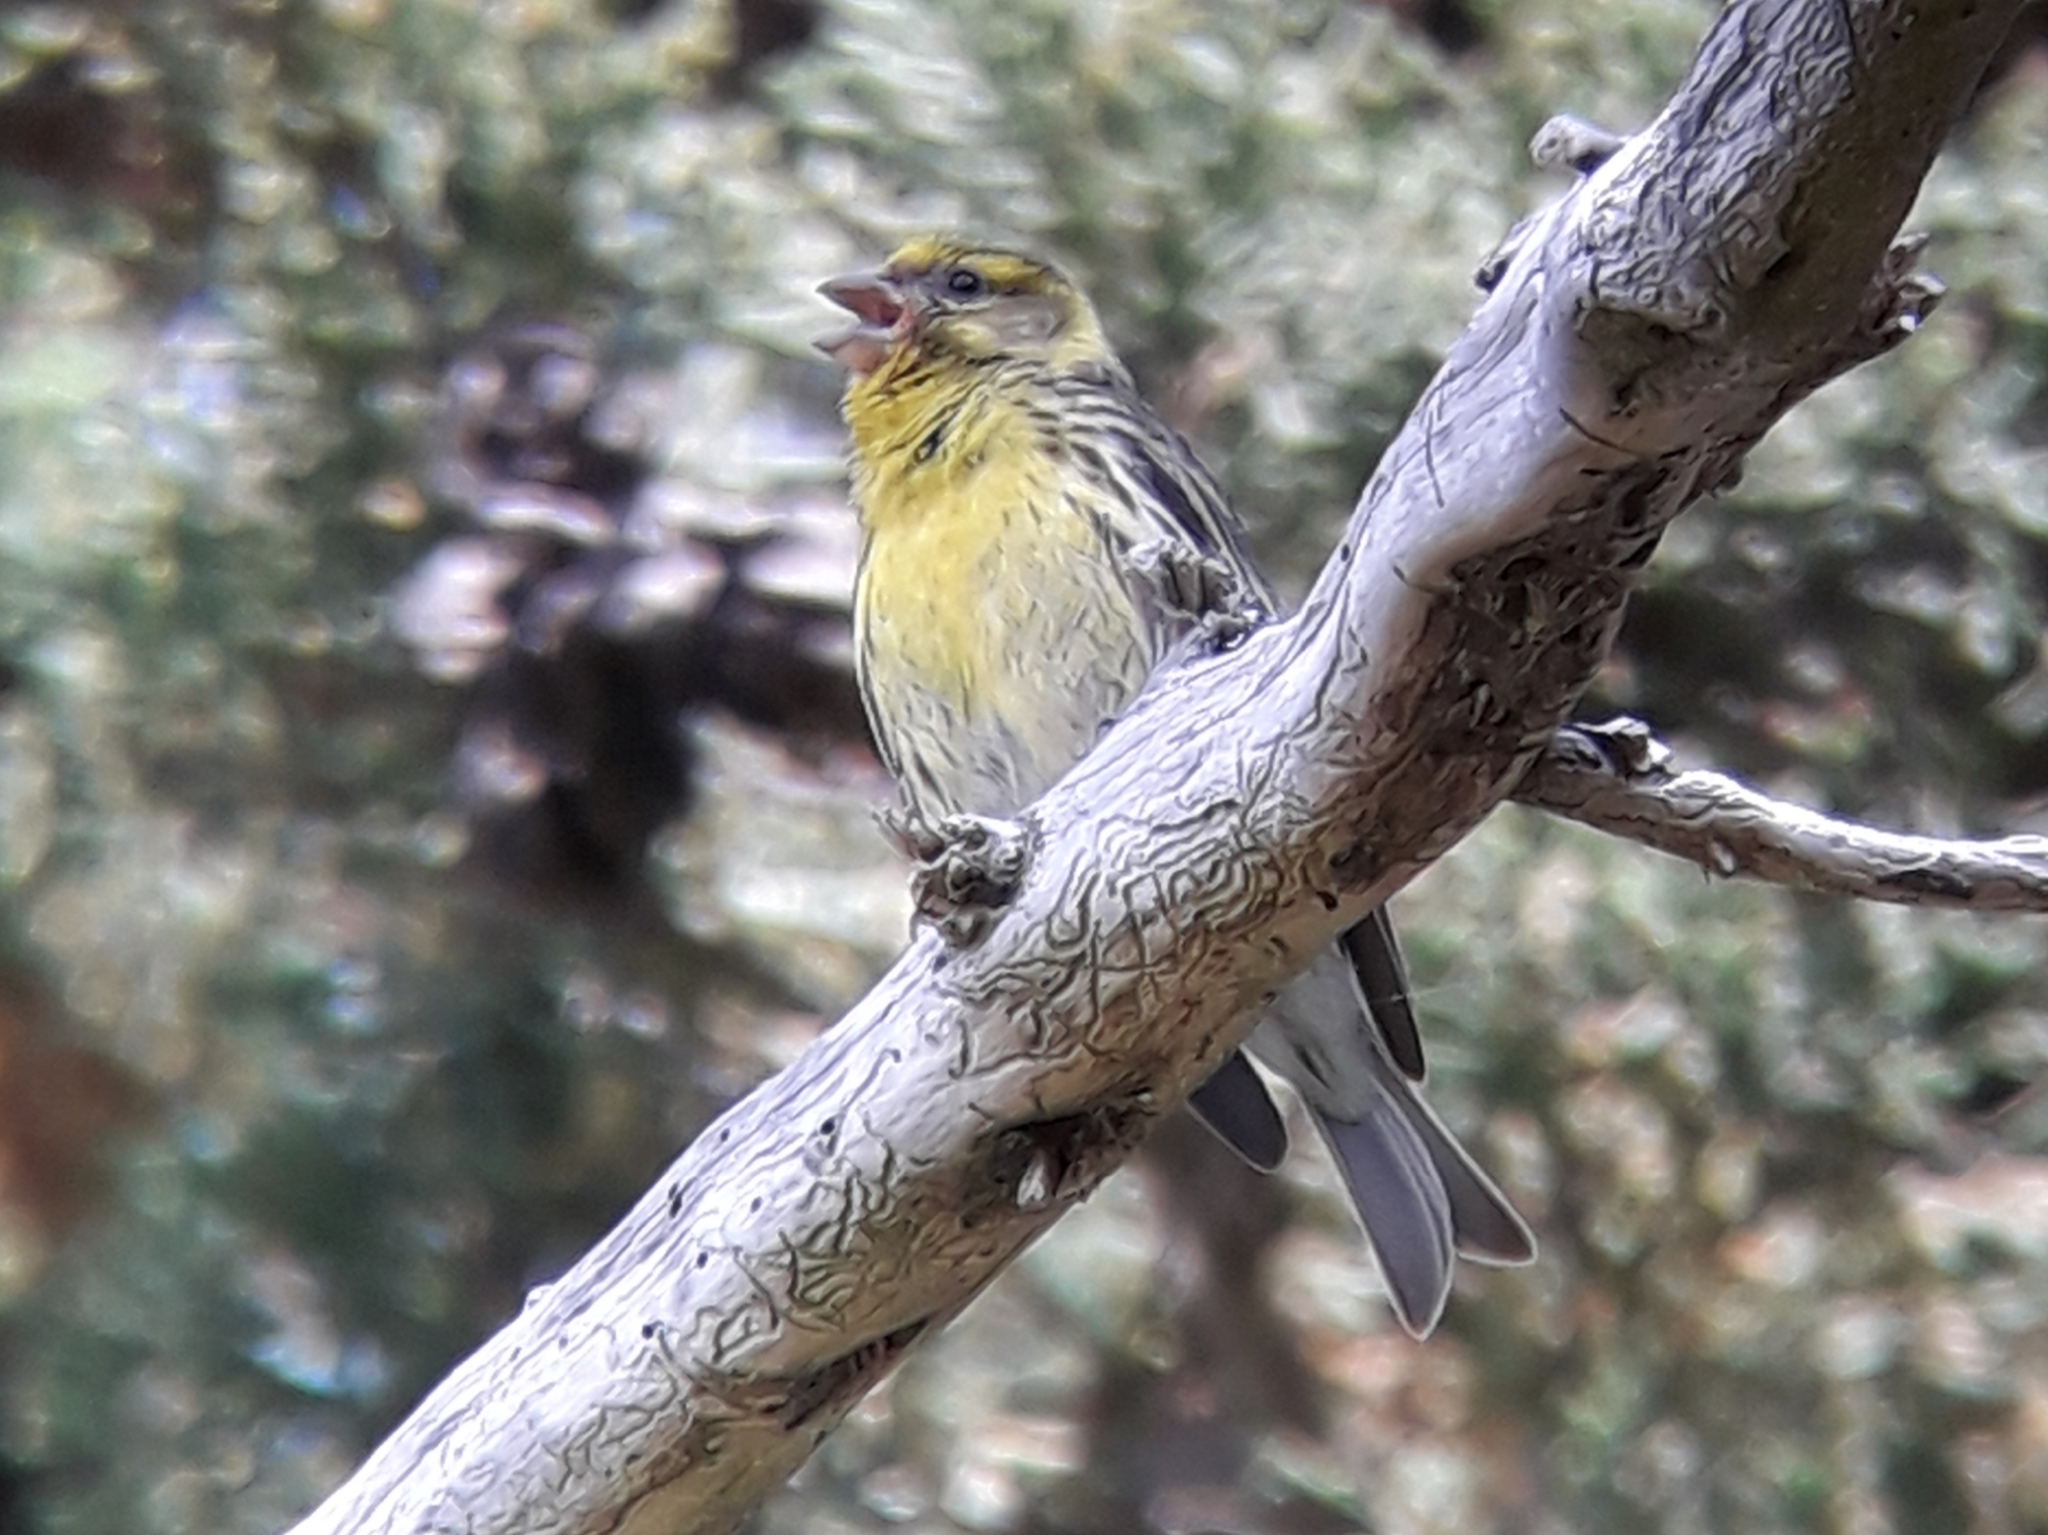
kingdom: Animalia
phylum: Chordata
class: Aves
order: Passeriformes
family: Fringillidae
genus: Serinus
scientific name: Serinus serinus
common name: European serin
